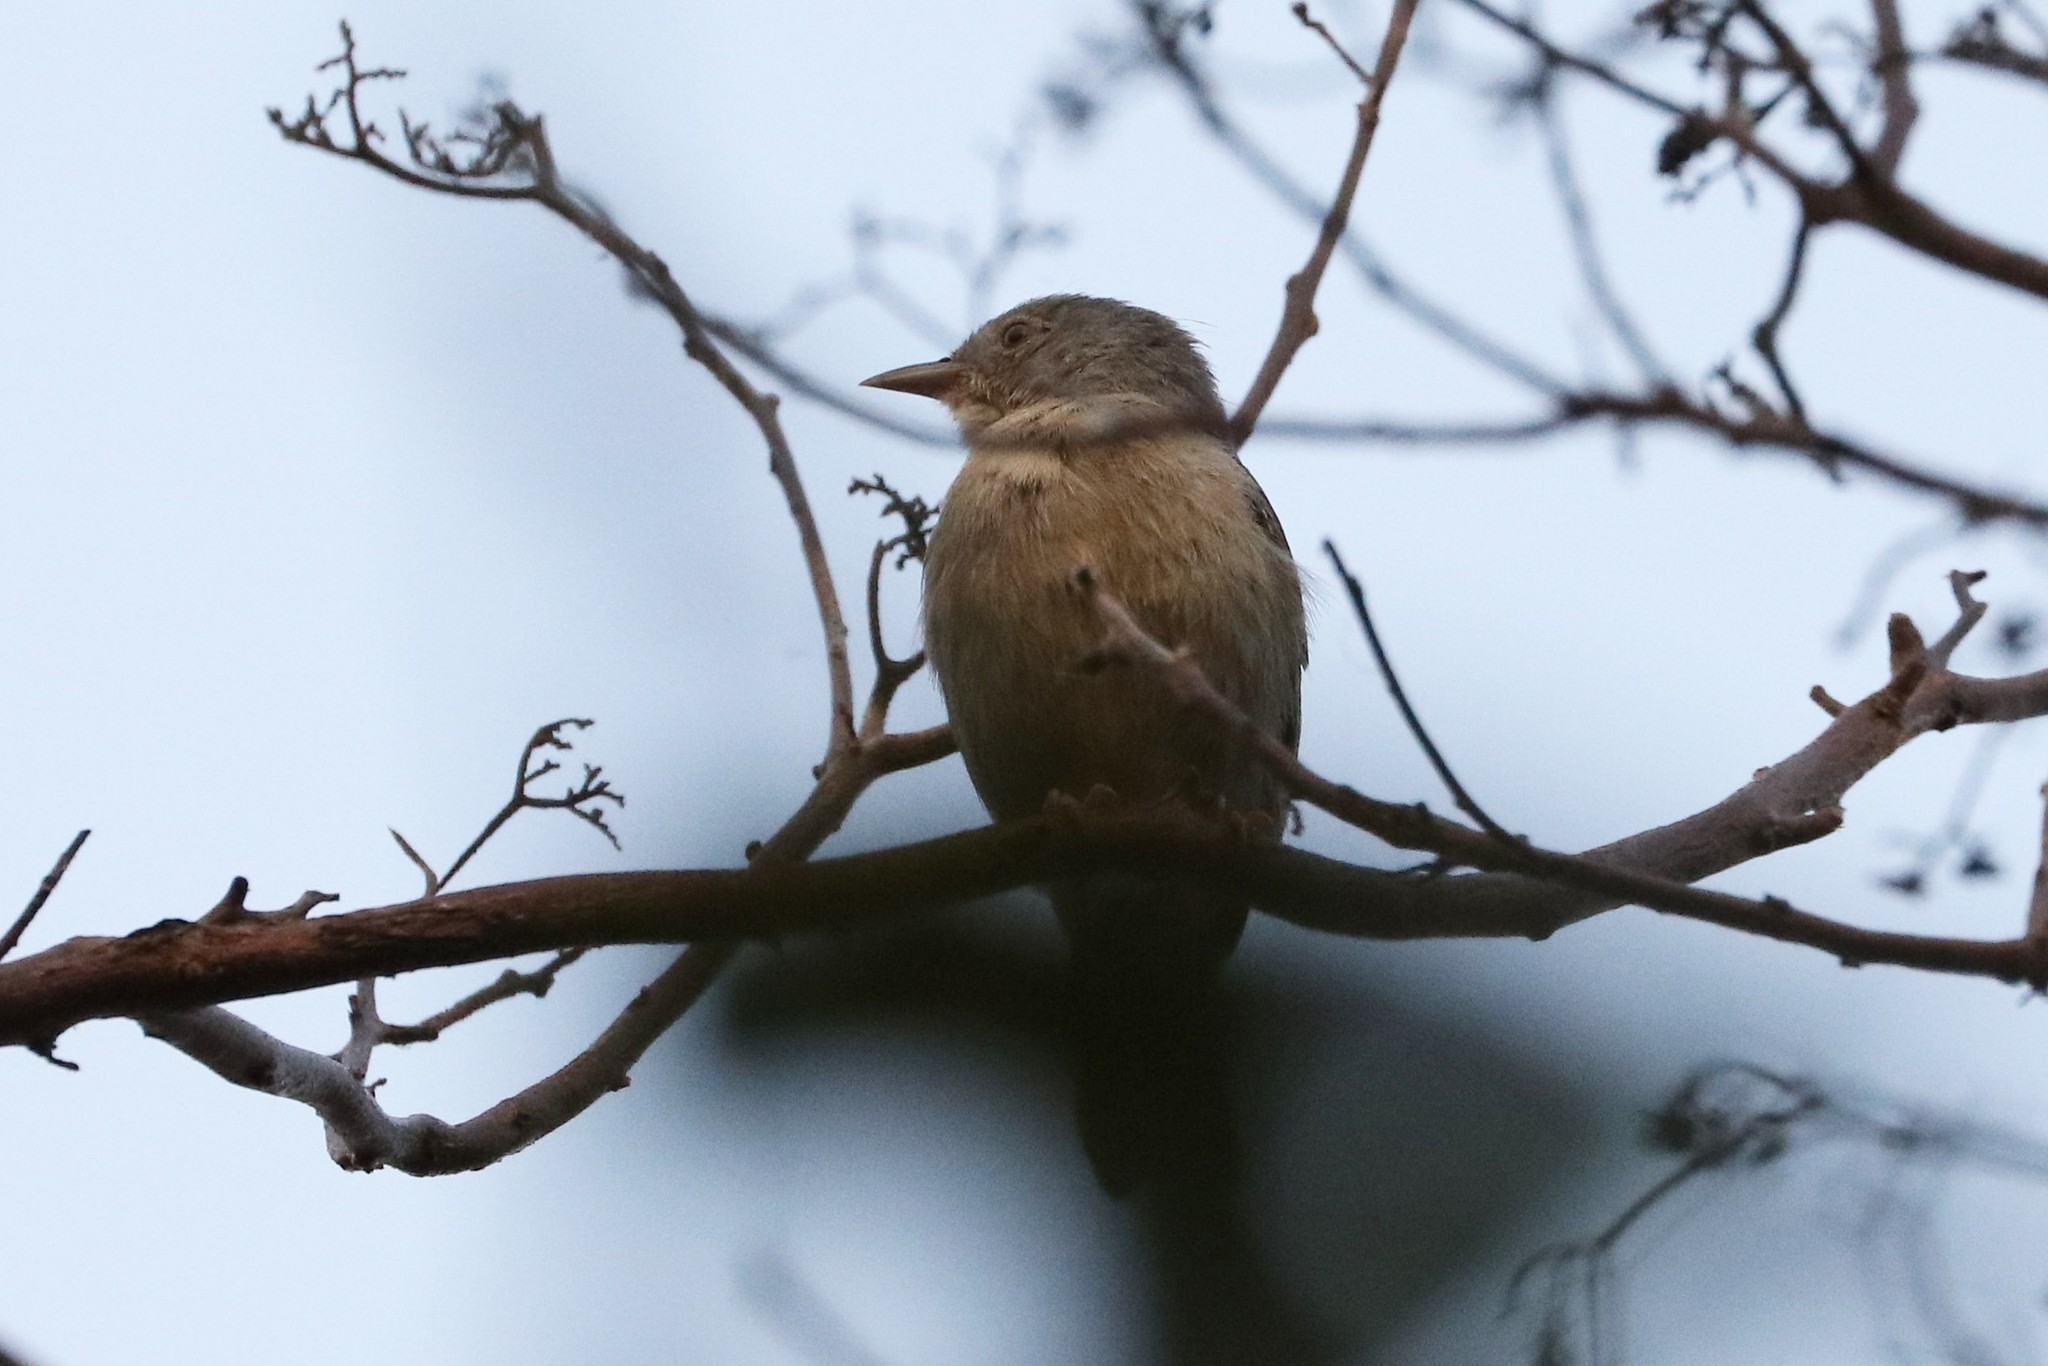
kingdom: Animalia
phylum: Chordata
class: Aves
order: Passeriformes
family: Thraupidae
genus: Conirostrum
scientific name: Conirostrum bicolor
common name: Bicolored conebill
